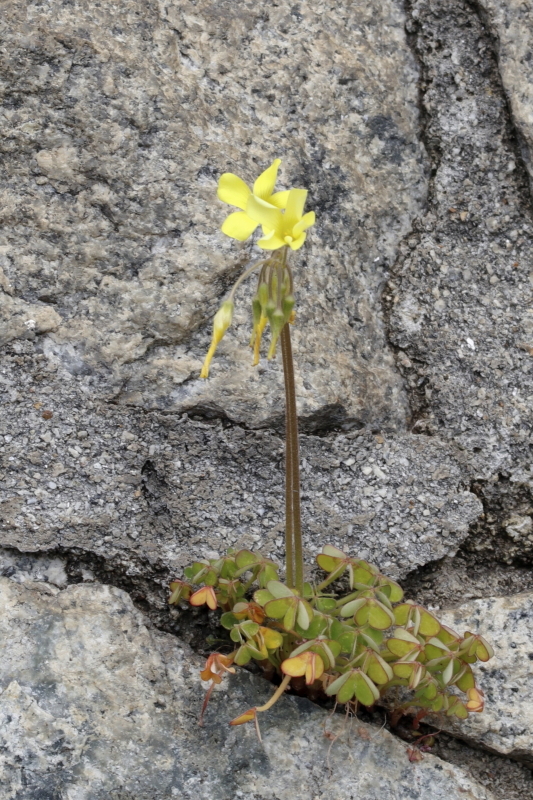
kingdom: Plantae
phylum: Tracheophyta
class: Magnoliopsida
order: Oxalidales
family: Oxalidaceae
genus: Oxalis
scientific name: Oxalis pes-caprae
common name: Bermuda-buttercup
